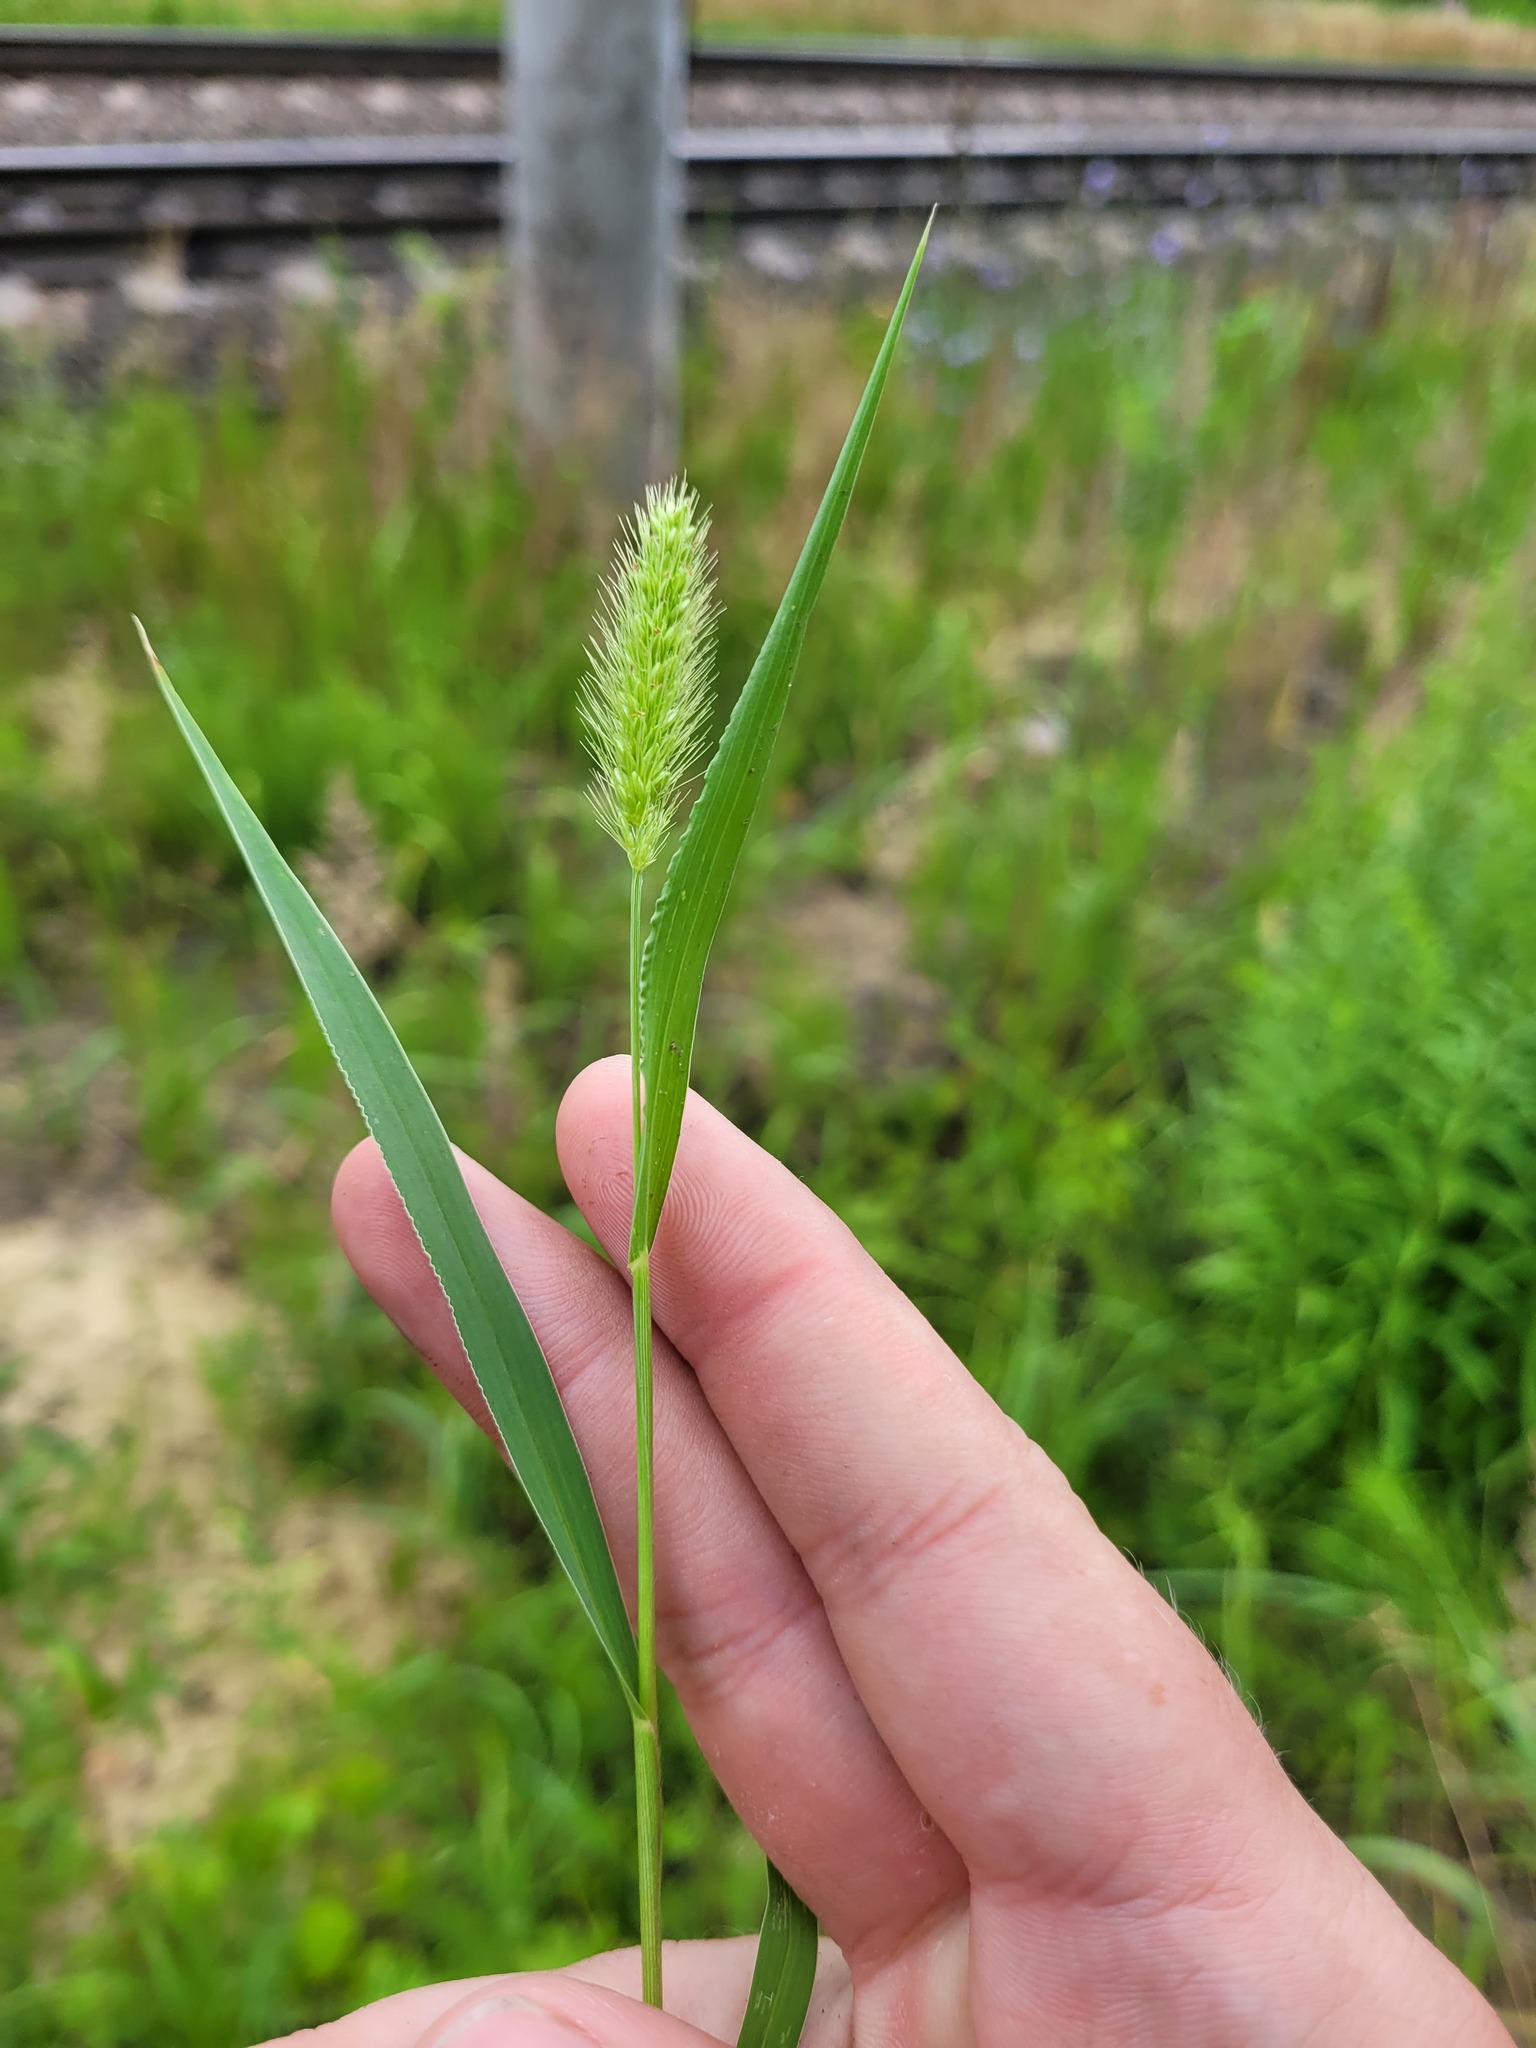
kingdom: Plantae
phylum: Tracheophyta
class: Liliopsida
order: Poales
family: Poaceae
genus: Setaria
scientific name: Setaria viridis
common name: Green bristlegrass
